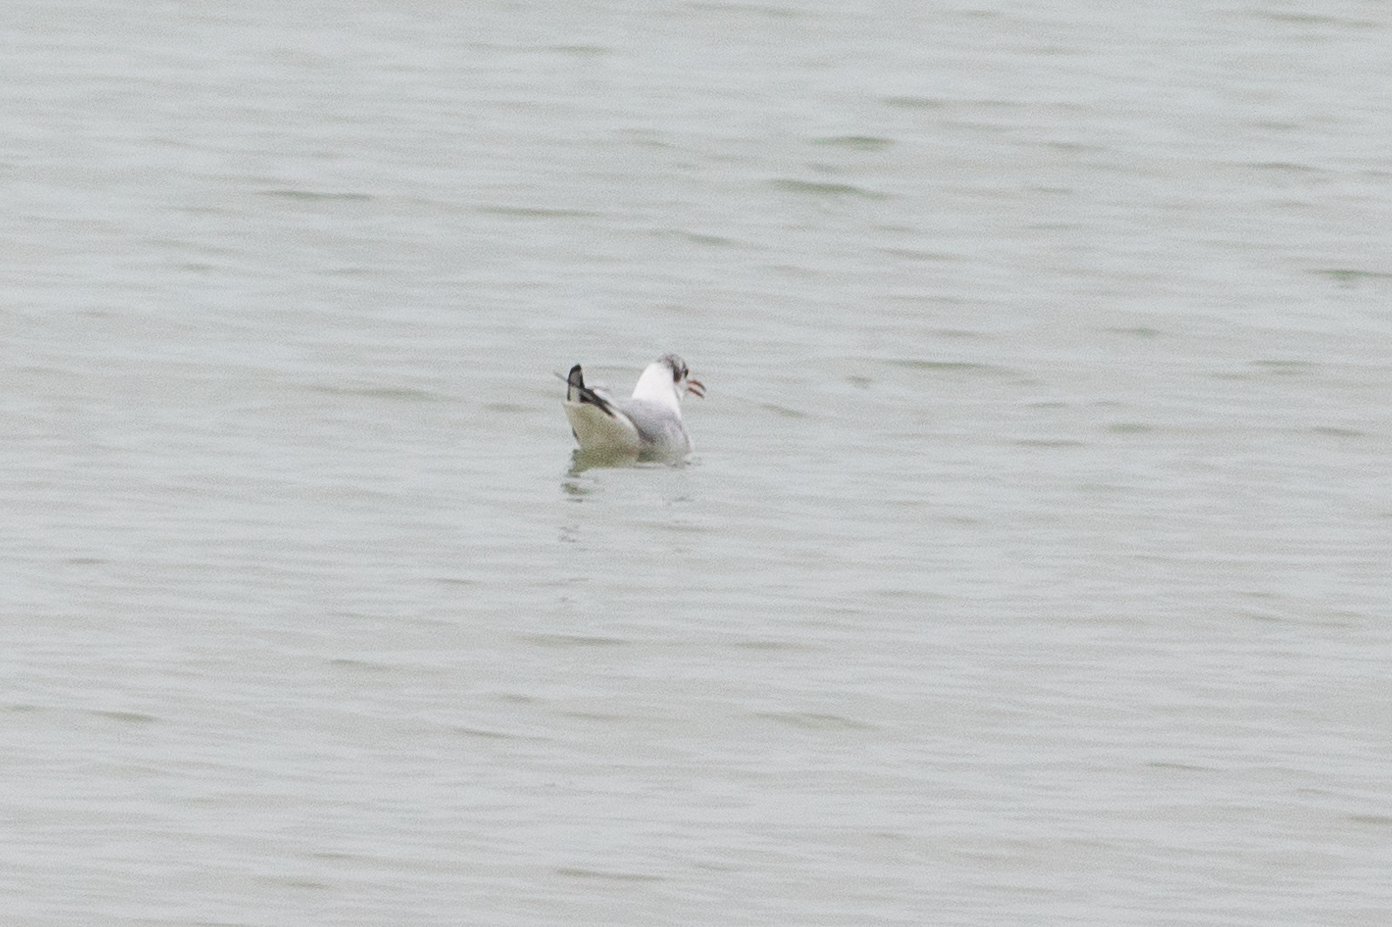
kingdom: Animalia
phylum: Chordata
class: Aves
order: Charadriiformes
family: Laridae
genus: Chroicocephalus
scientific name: Chroicocephalus ridibundus
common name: Black-headed gull
